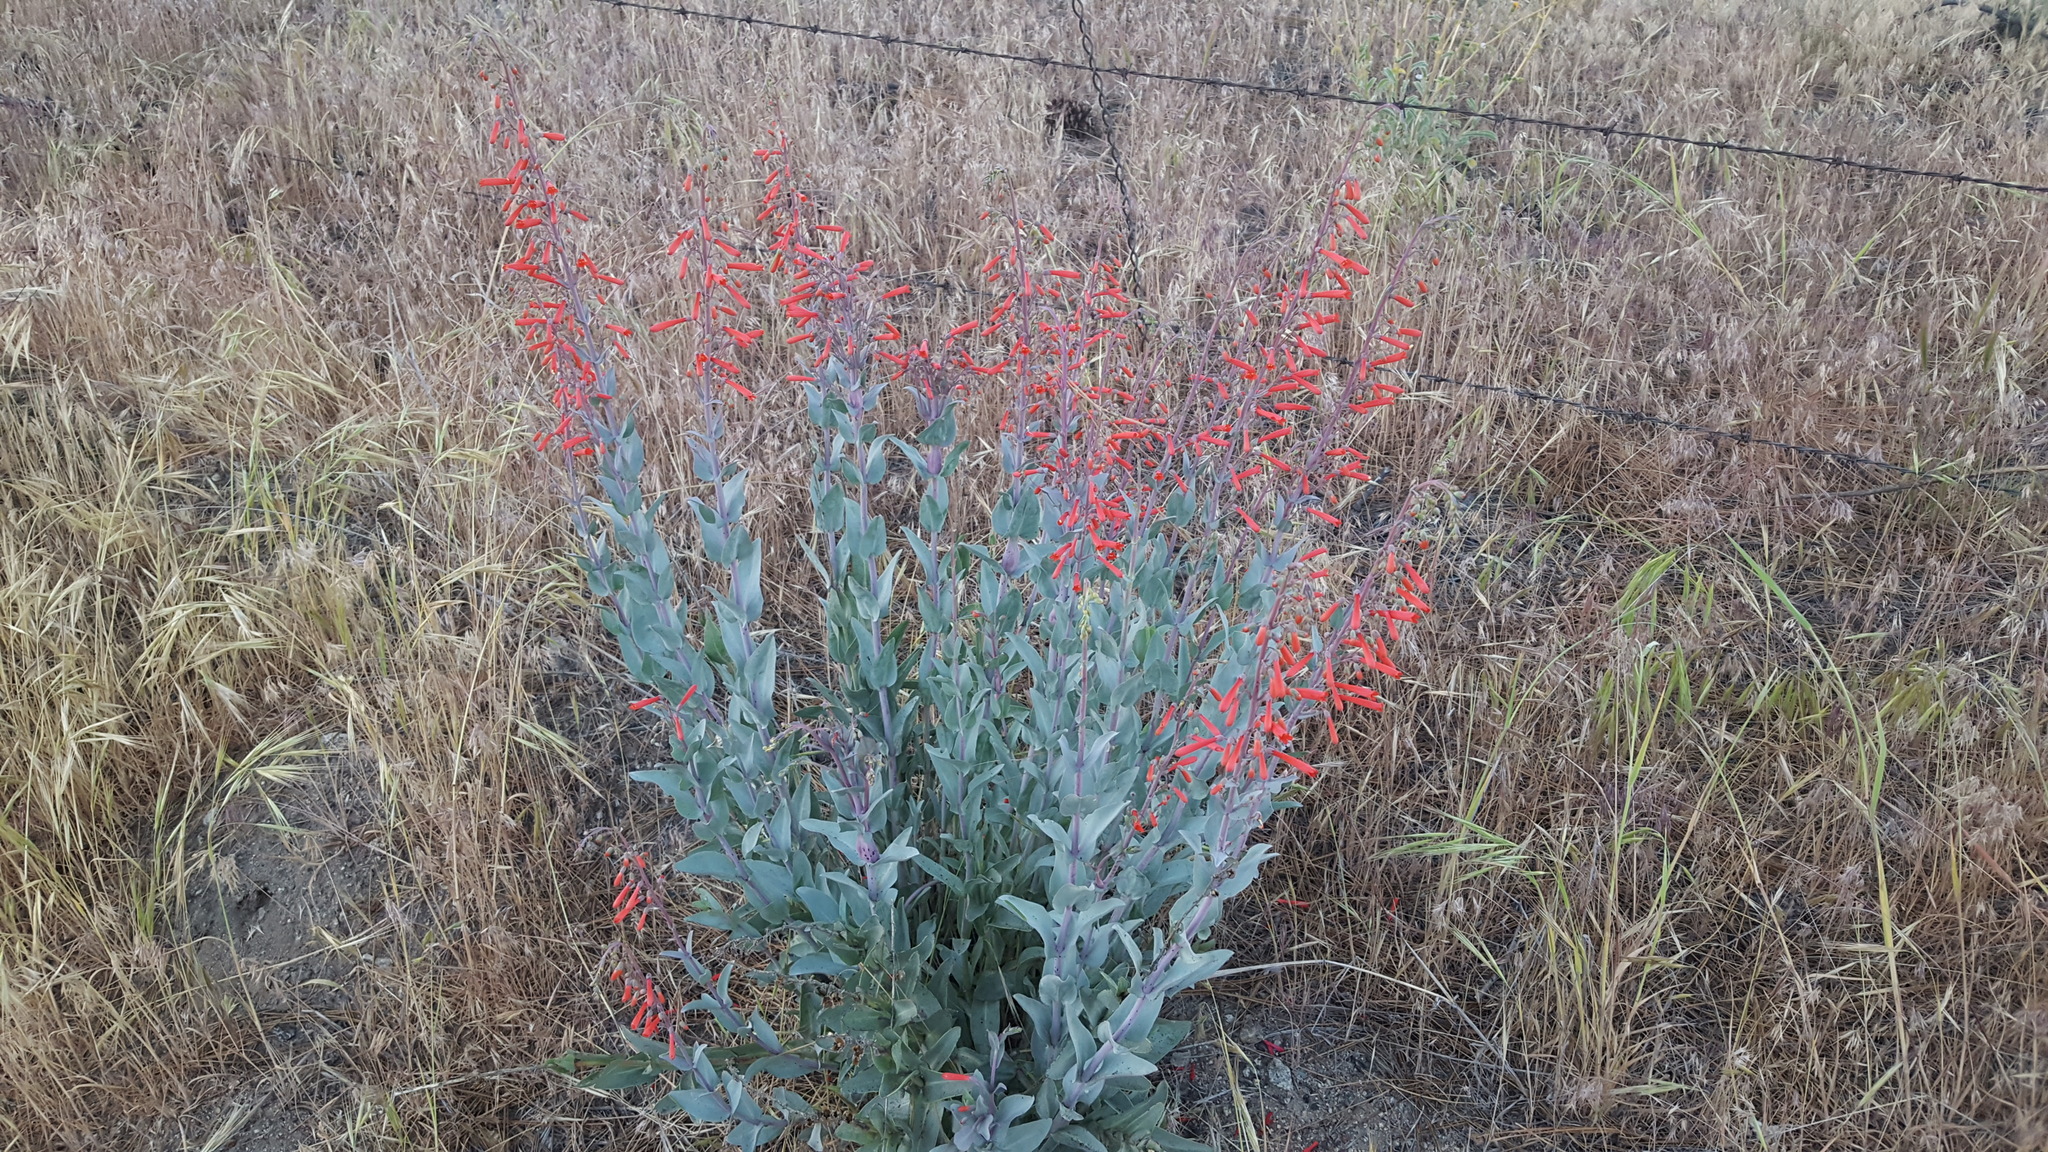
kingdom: Plantae
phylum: Tracheophyta
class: Magnoliopsida
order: Lamiales
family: Plantaginaceae
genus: Penstemon
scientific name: Penstemon centranthifolius
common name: Scarlet bugler
